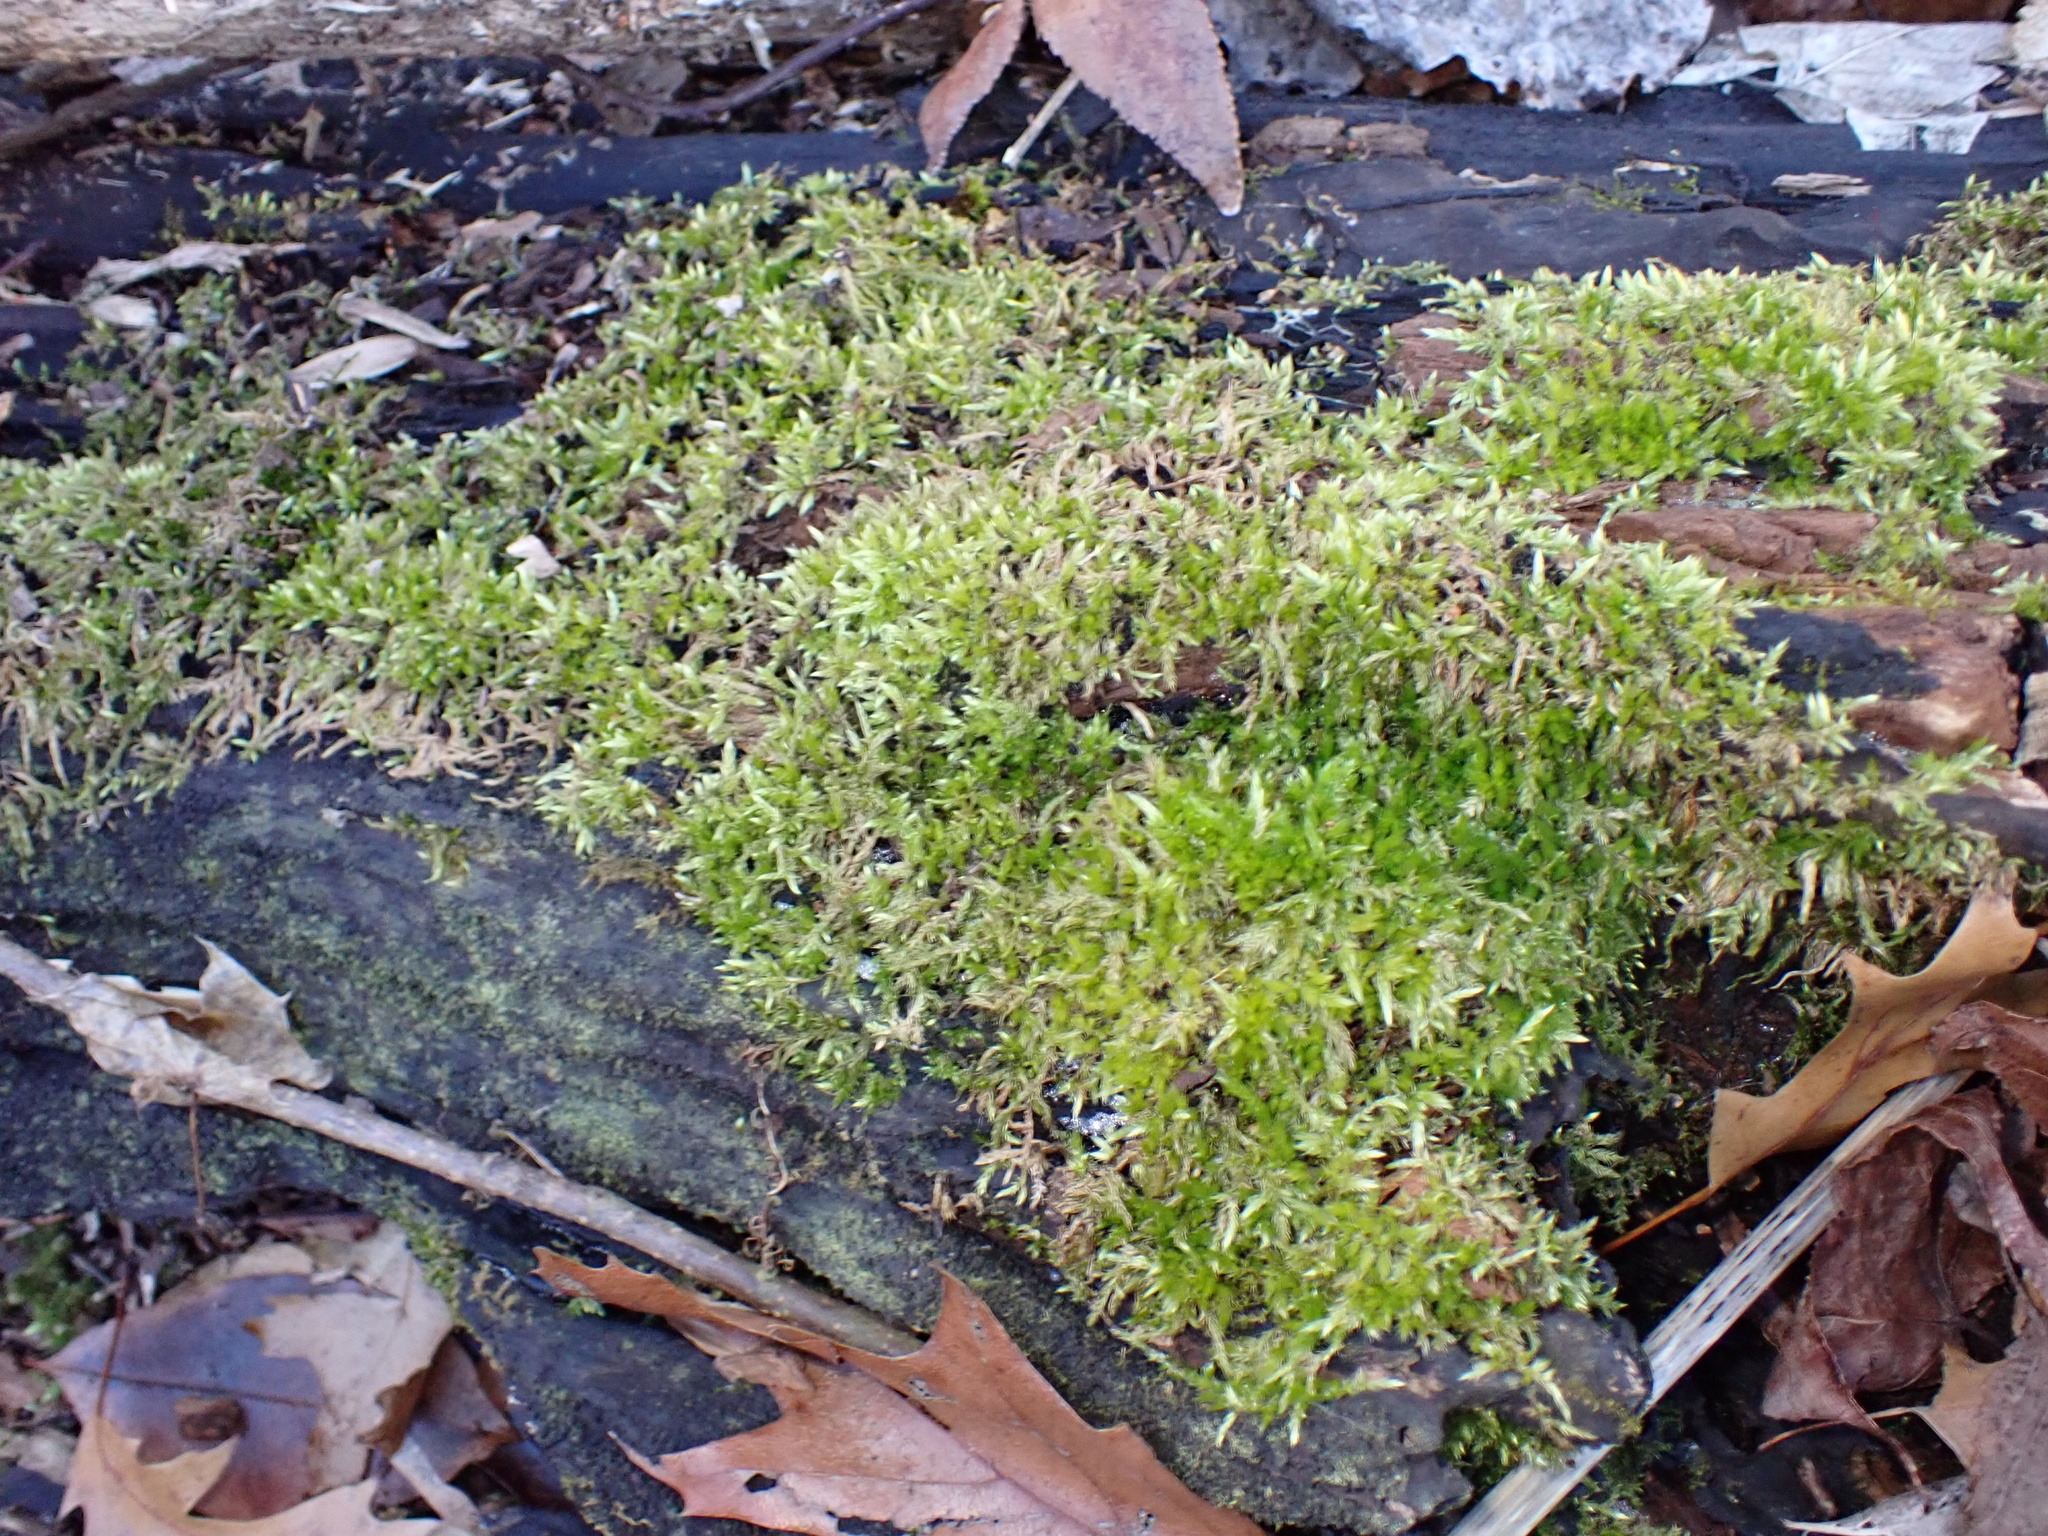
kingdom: Plantae
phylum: Bryophyta
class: Bryopsida
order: Hypnales
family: Callicladiaceae
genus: Callicladium
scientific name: Callicladium haldanianum
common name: Beautiful branch moss
